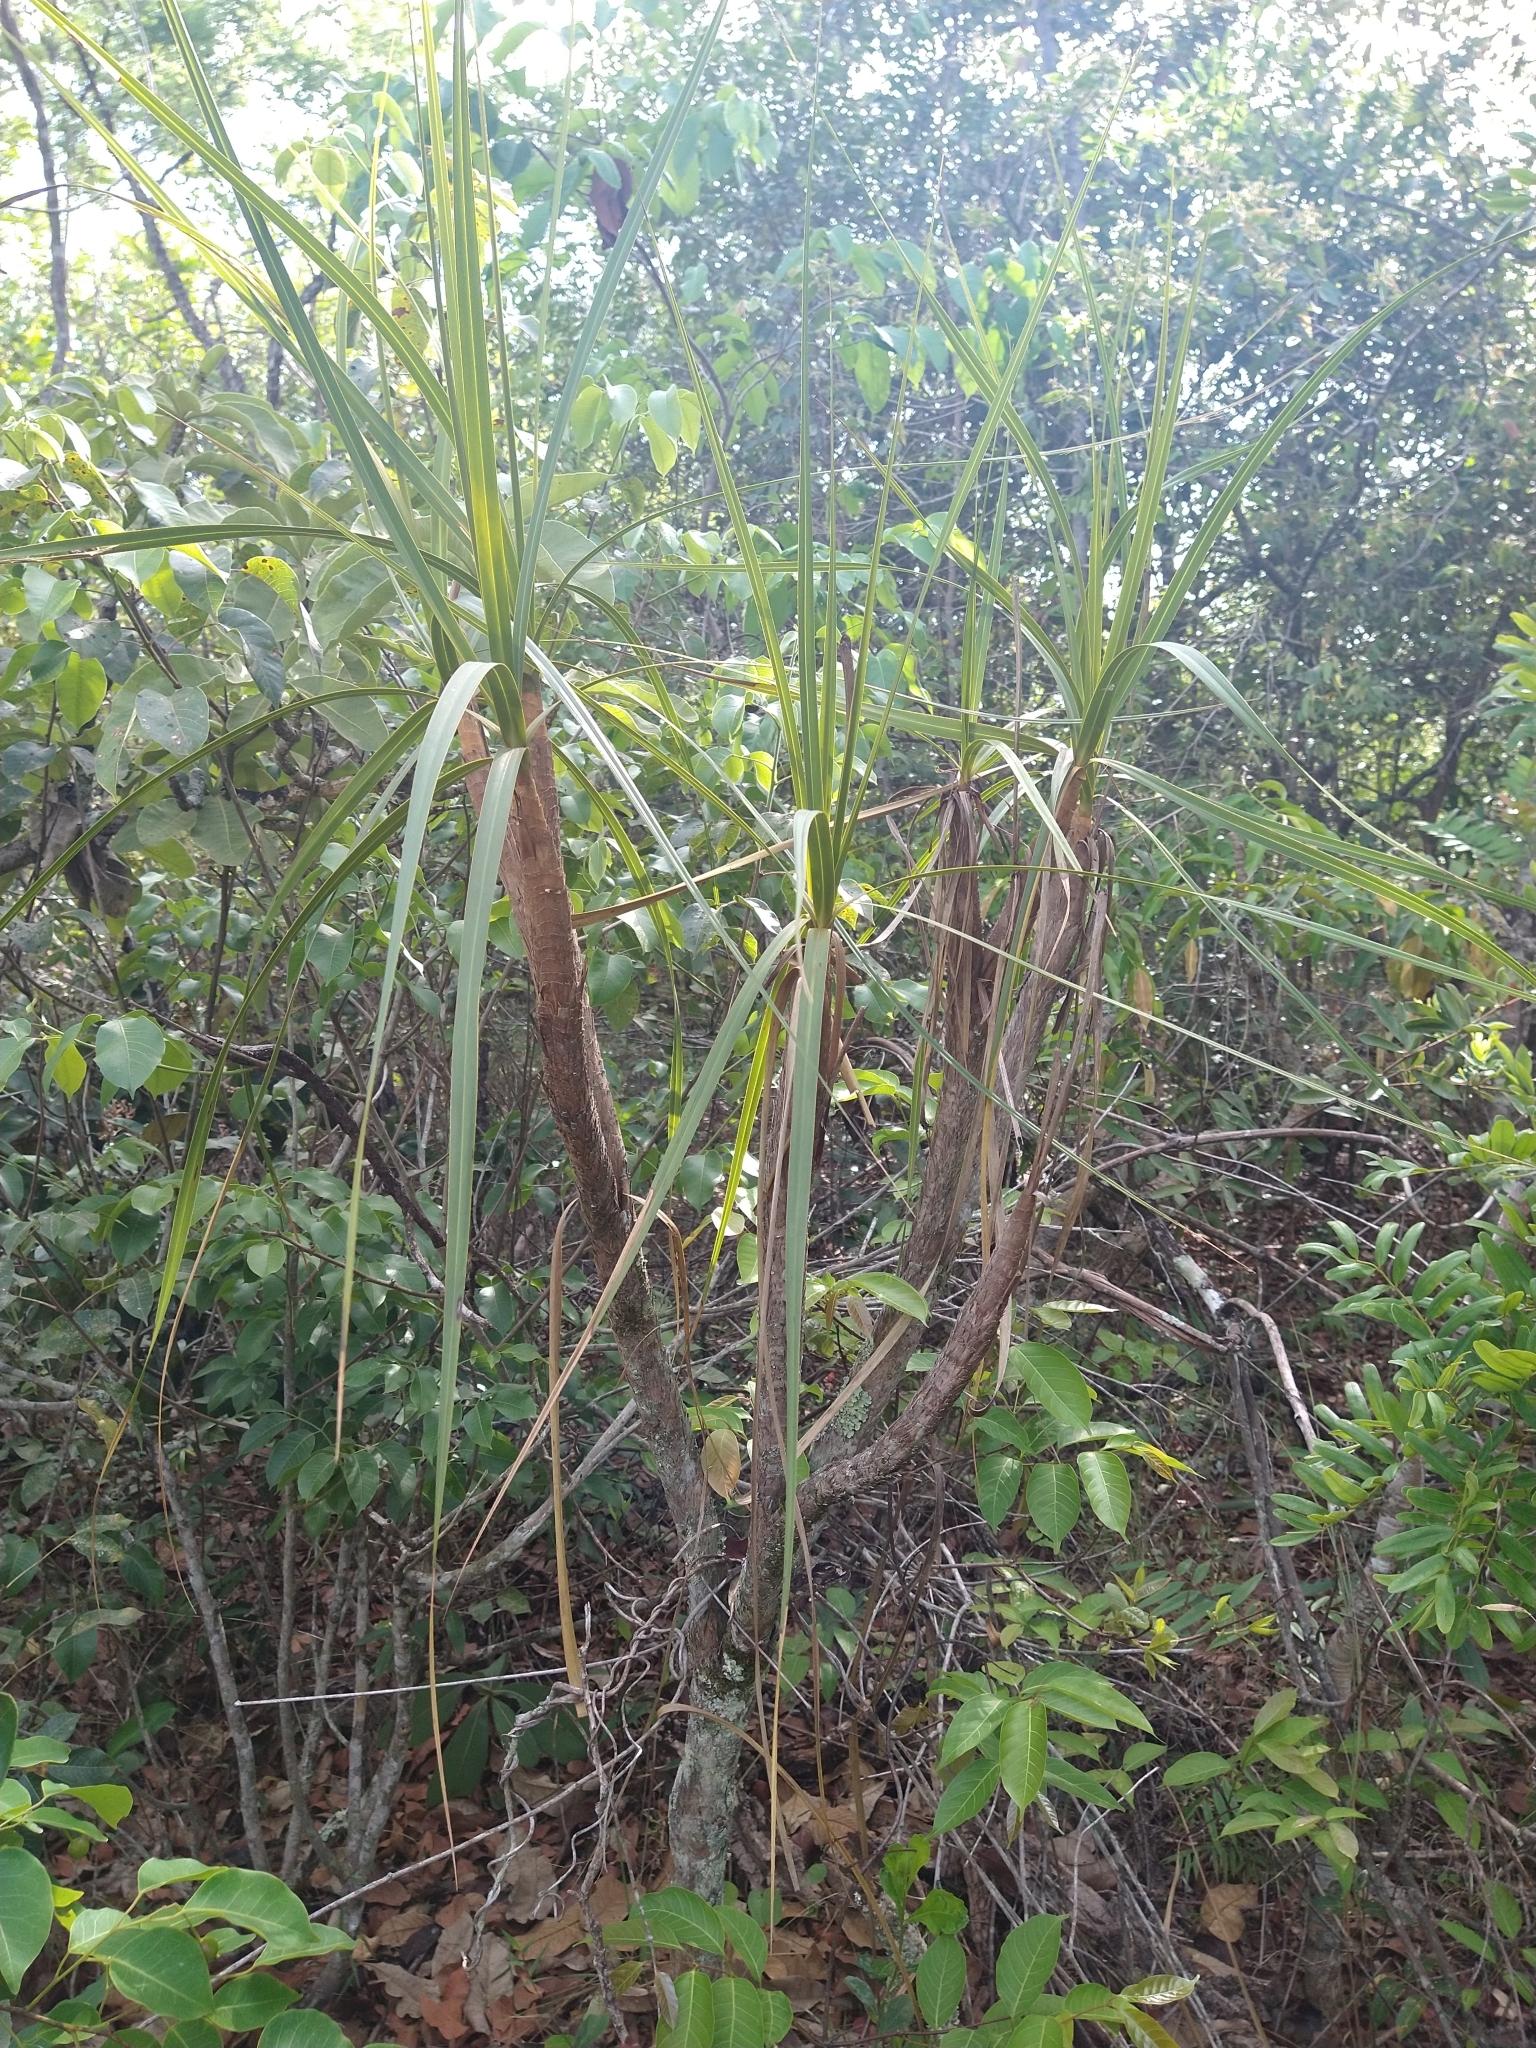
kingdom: Plantae
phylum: Tracheophyta
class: Liliopsida
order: Pandanales
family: Velloziaceae
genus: Vellozia
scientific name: Vellozia squamata
